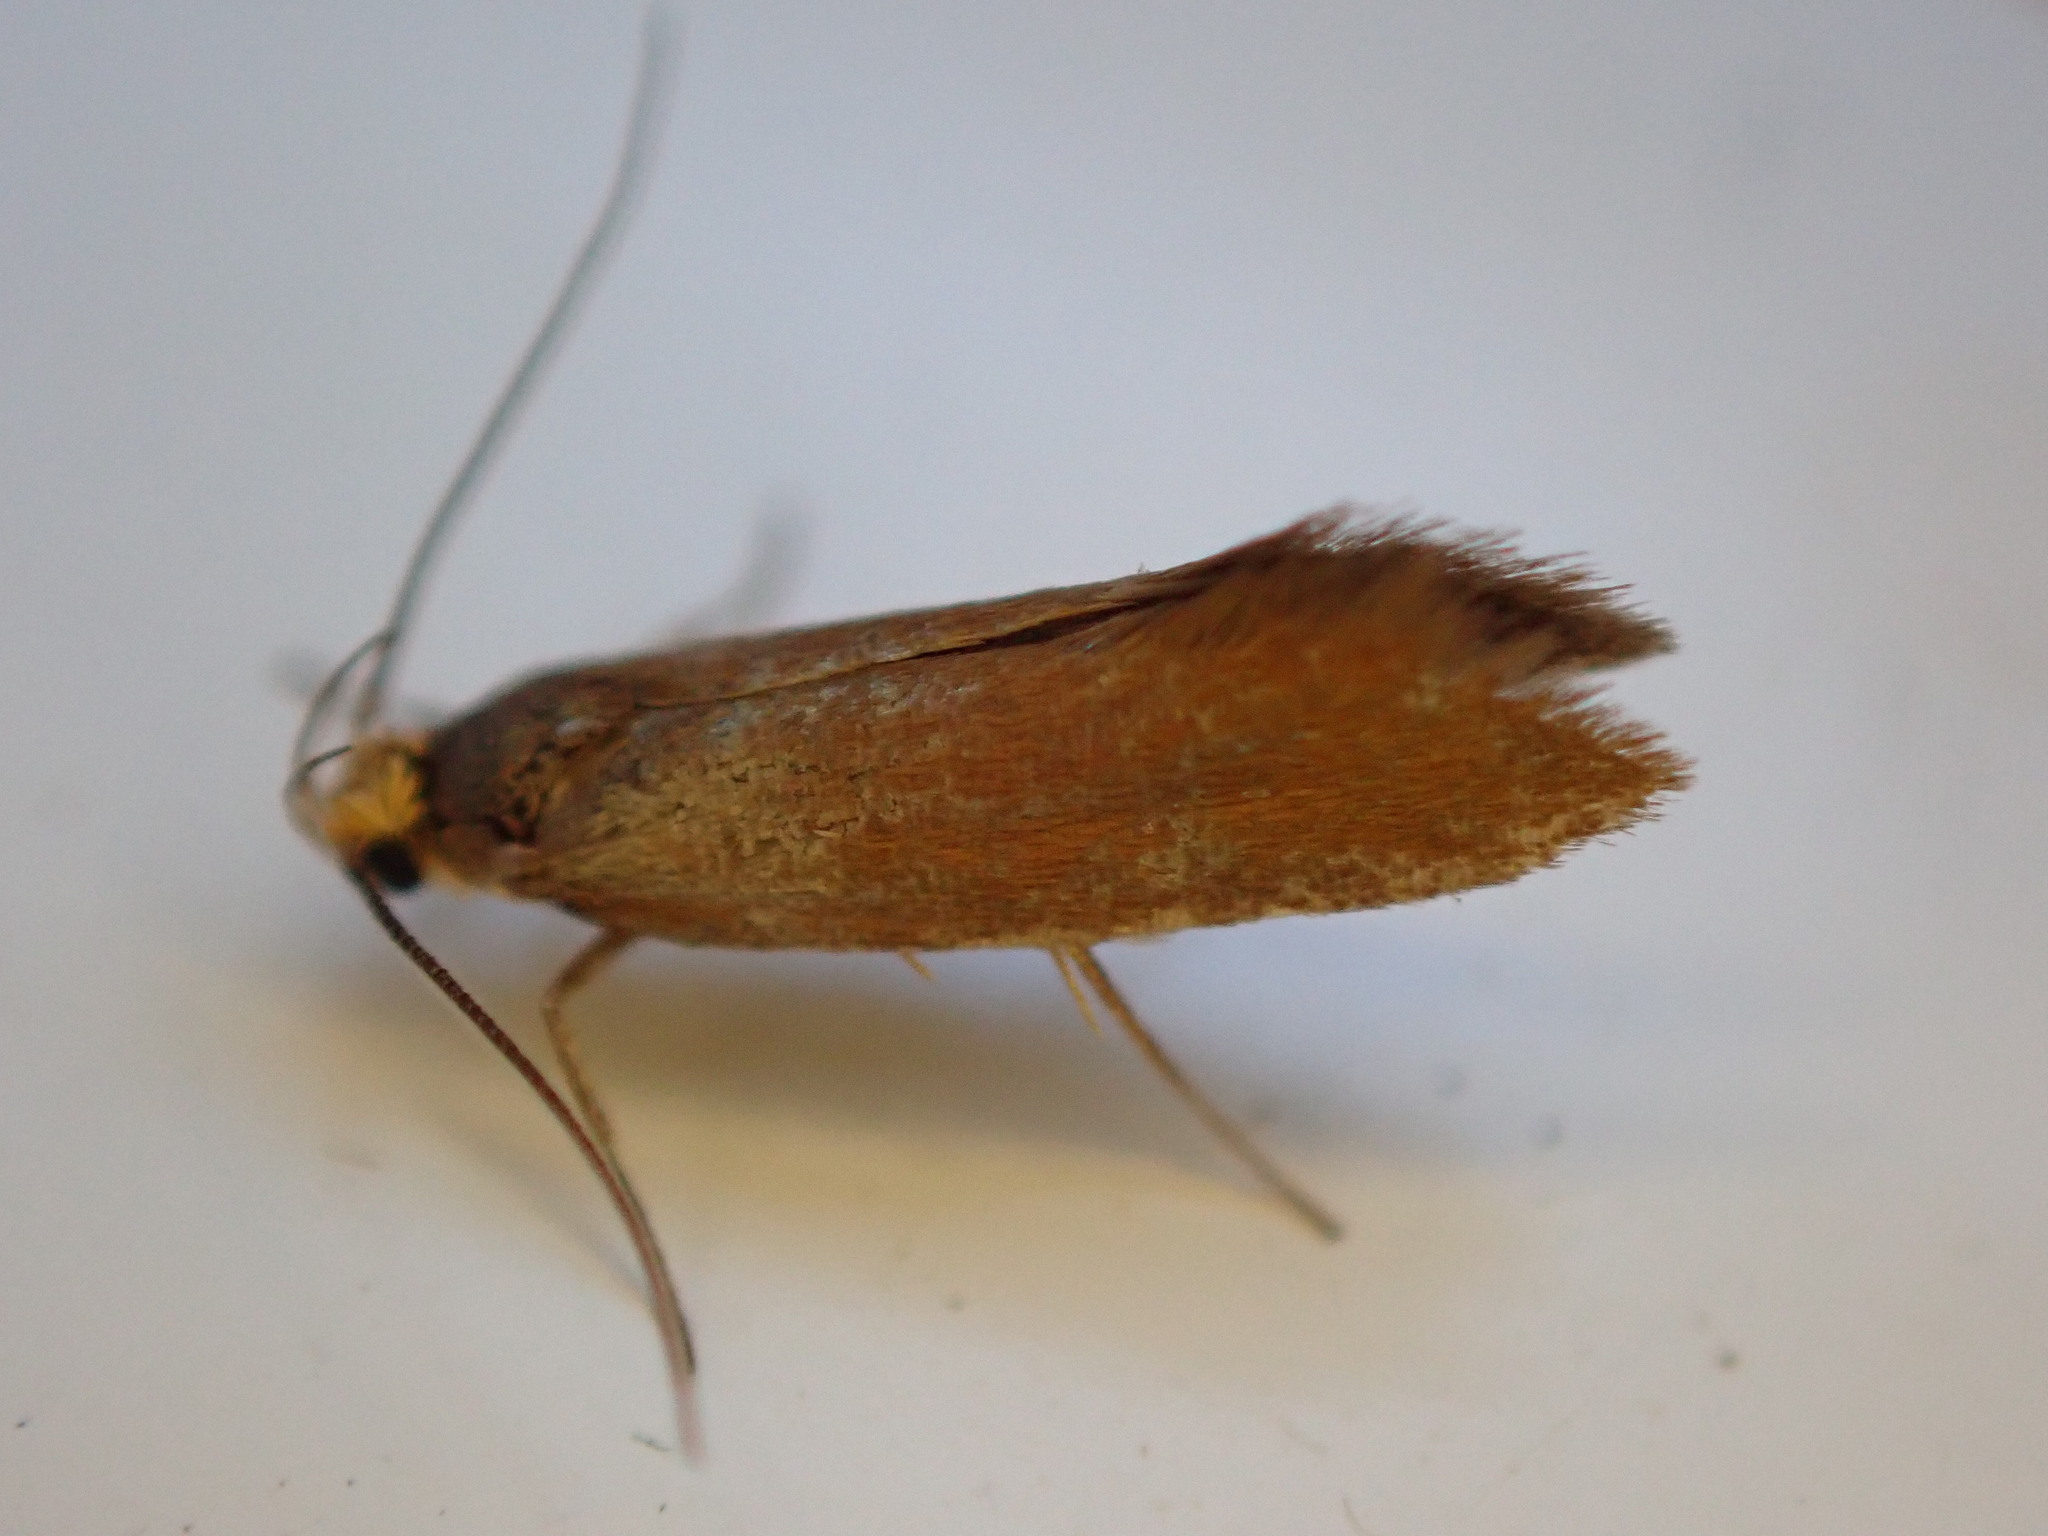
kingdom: Animalia
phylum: Arthropoda
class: Insecta
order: Lepidoptera
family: Oecophoridae
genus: Borkhausenia
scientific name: Borkhausenia Crassa unitella
